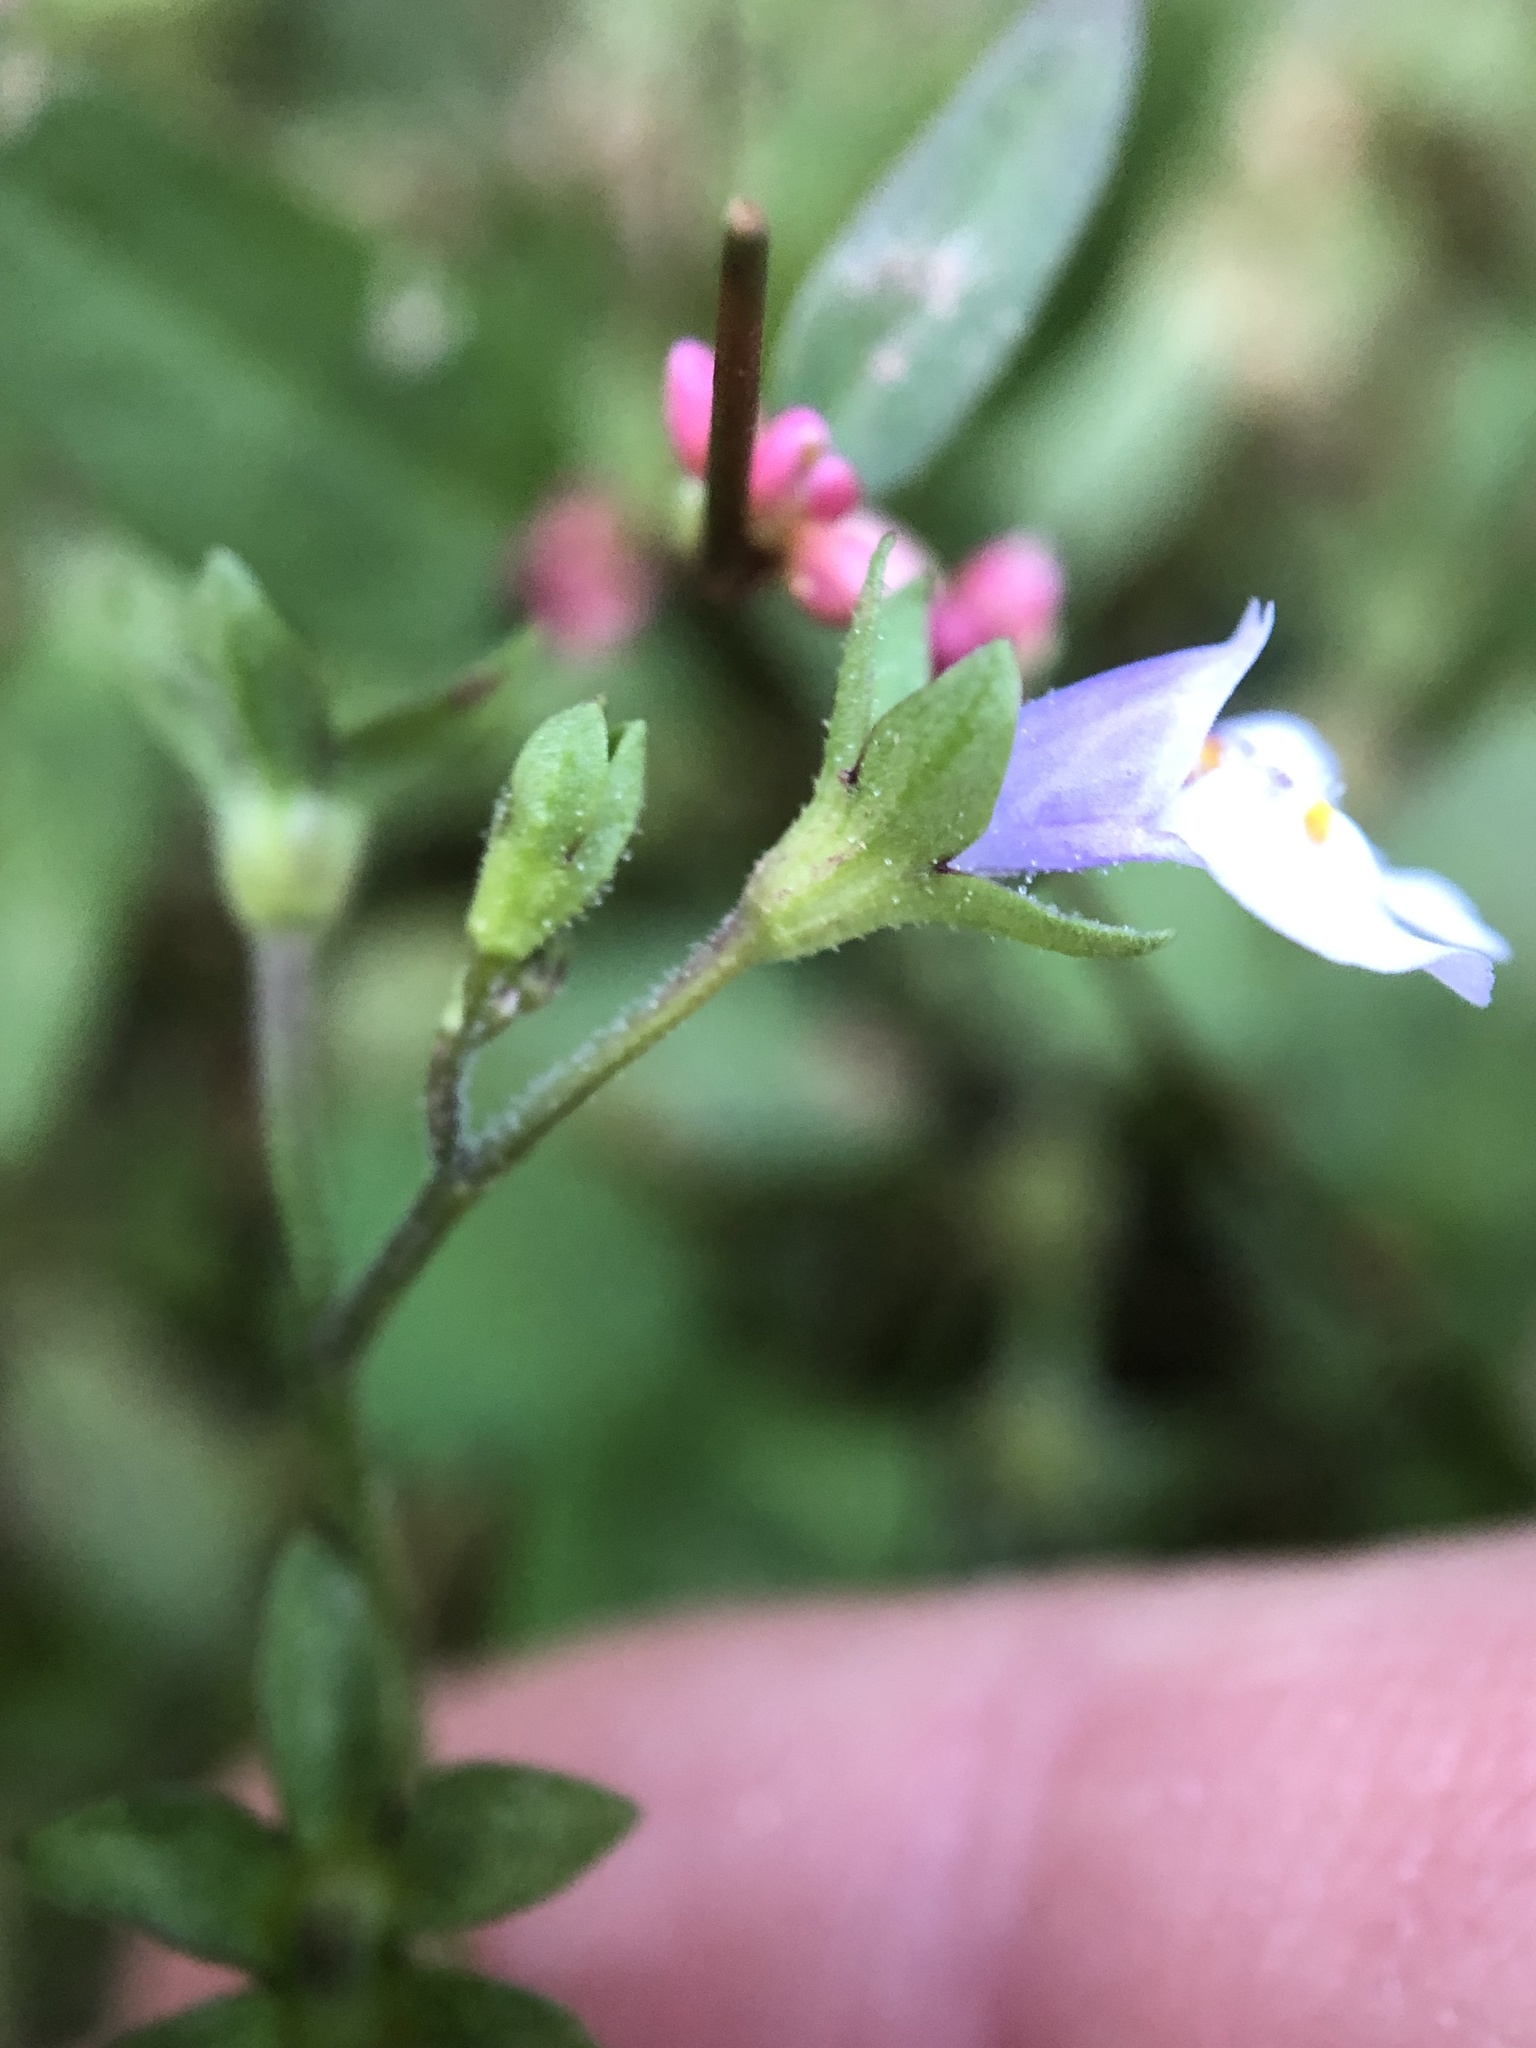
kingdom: Plantae
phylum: Tracheophyta
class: Magnoliopsida
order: Lamiales
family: Mazaceae
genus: Mazus
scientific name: Mazus pumilus
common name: Japanese mazus
